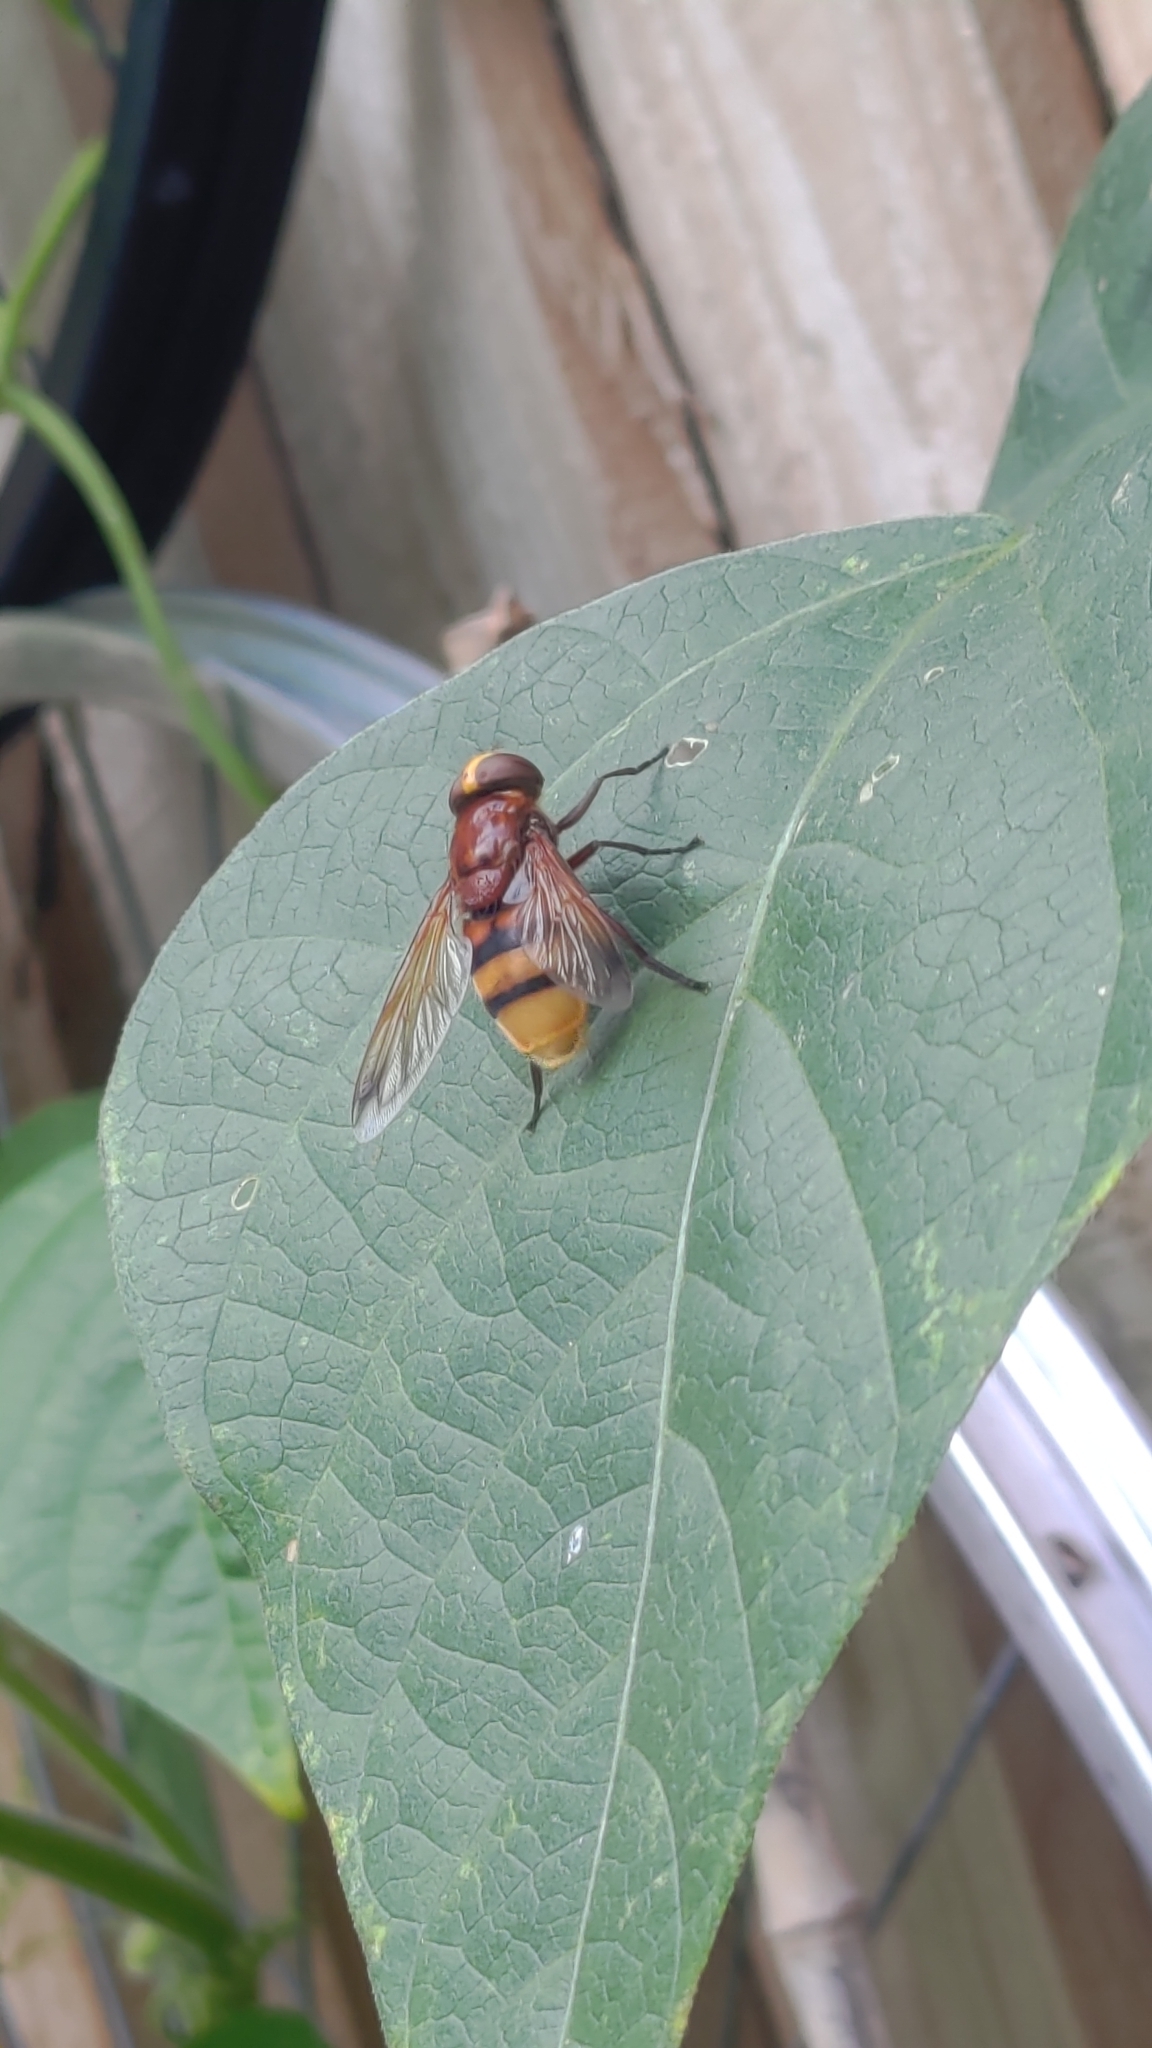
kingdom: Animalia
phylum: Arthropoda
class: Insecta
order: Diptera
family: Syrphidae
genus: Volucella
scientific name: Volucella zonaria
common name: Hornet hoverfly
